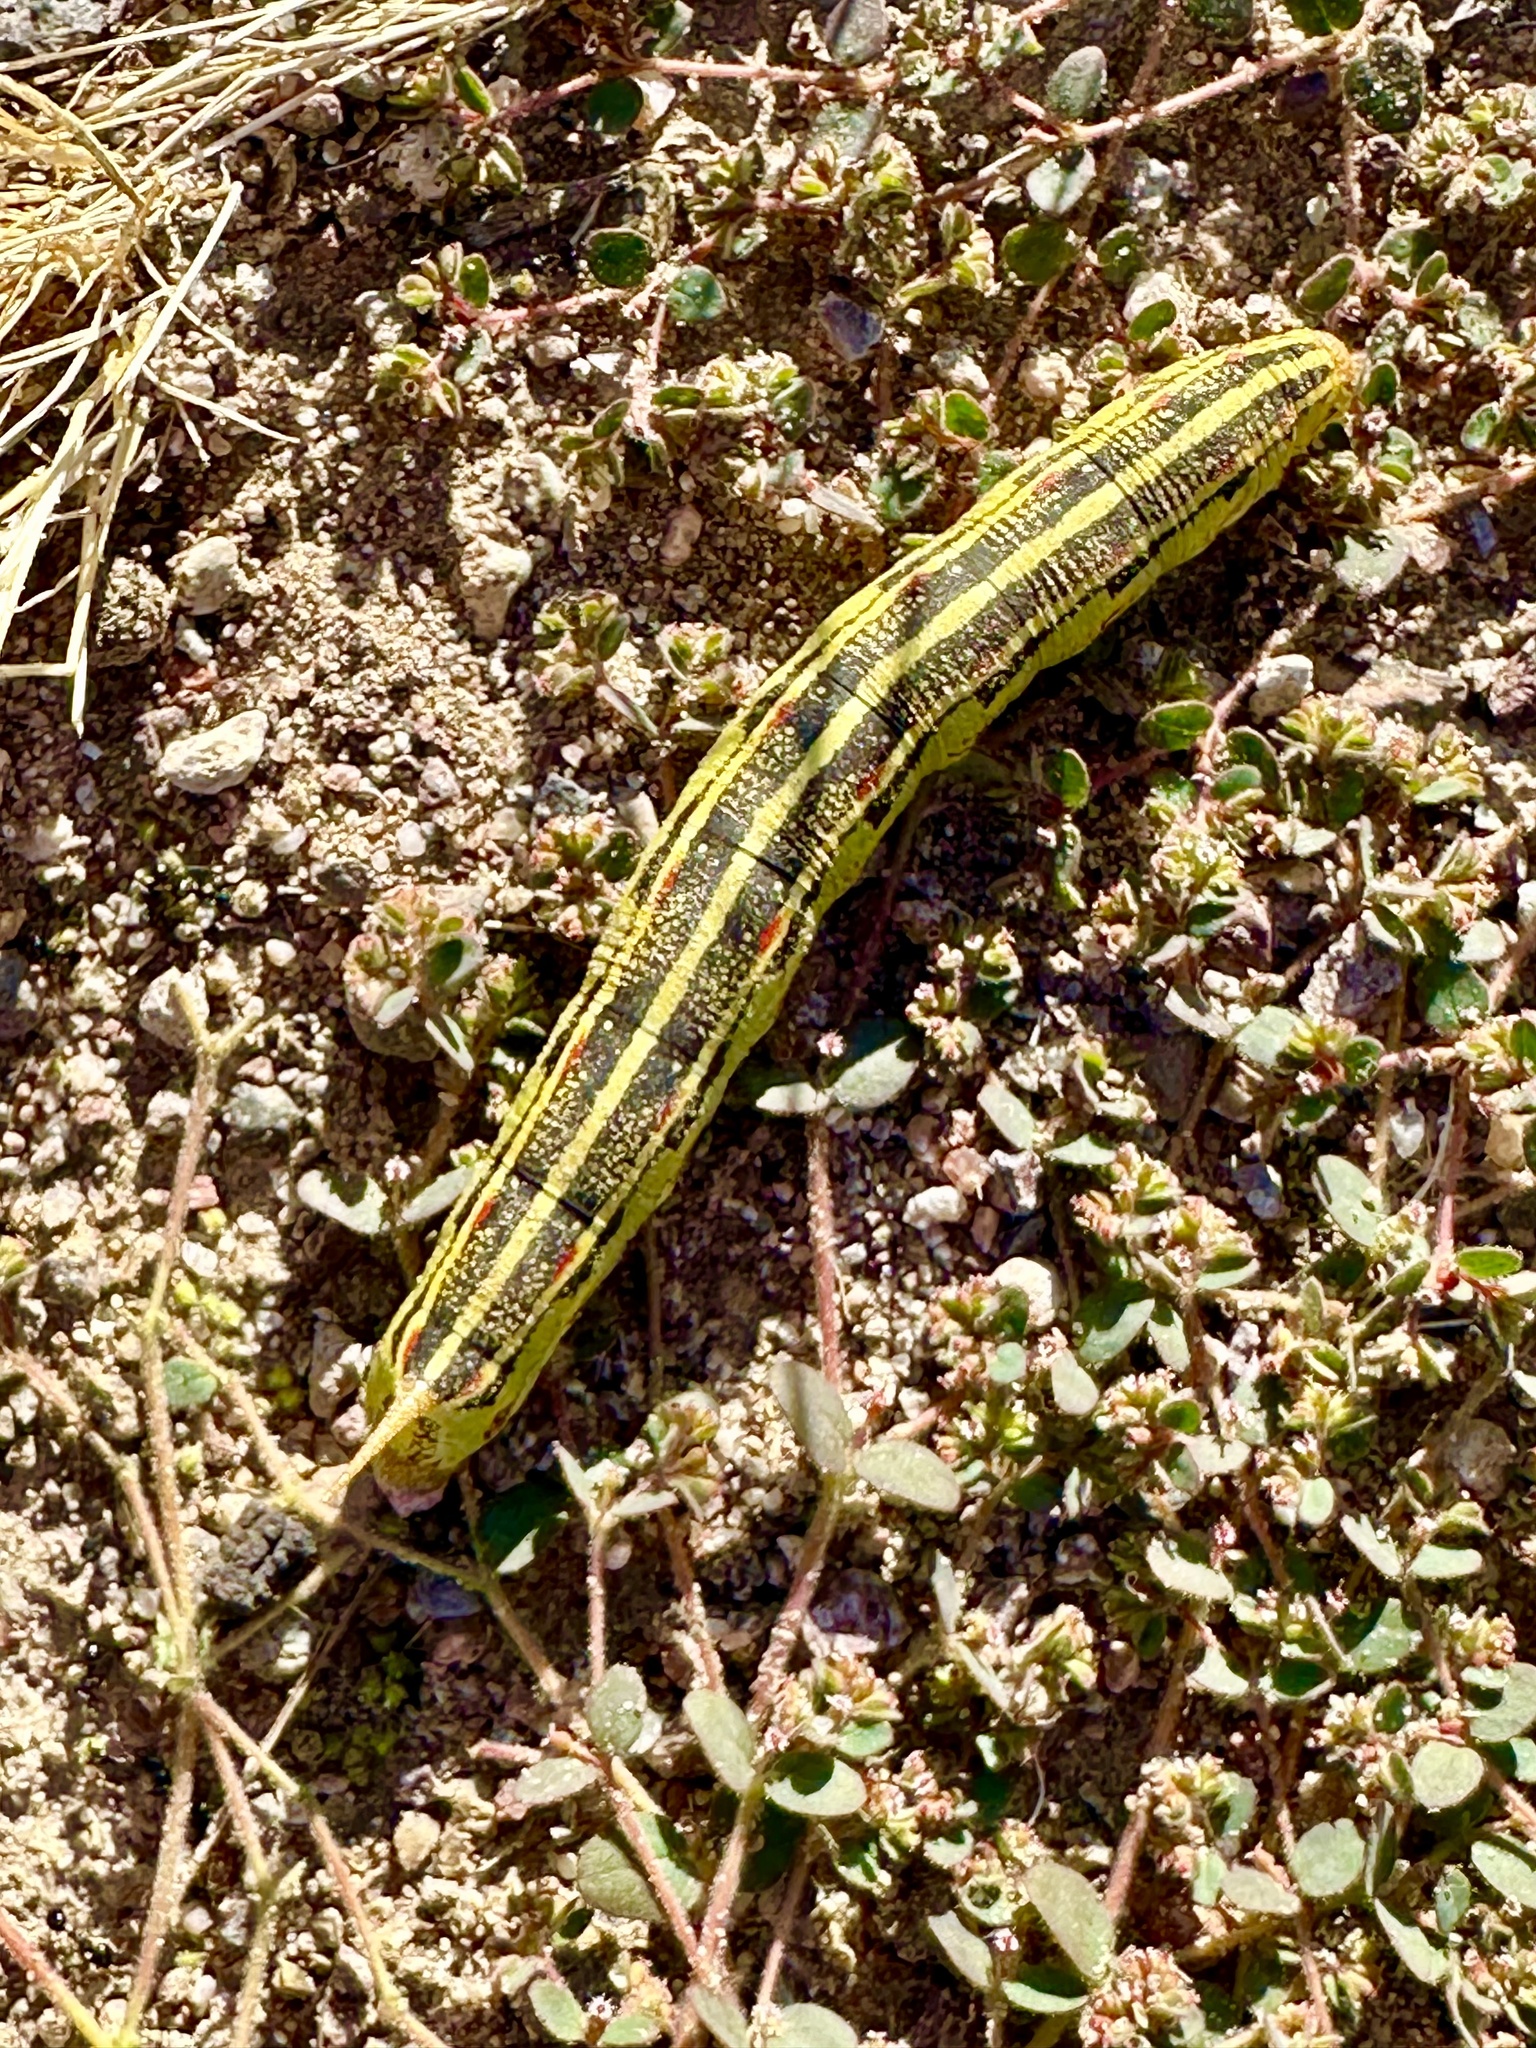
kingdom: Animalia
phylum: Arthropoda
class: Insecta
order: Lepidoptera
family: Sphingidae
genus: Hyles
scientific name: Hyles lineata
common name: White-lined sphinx
